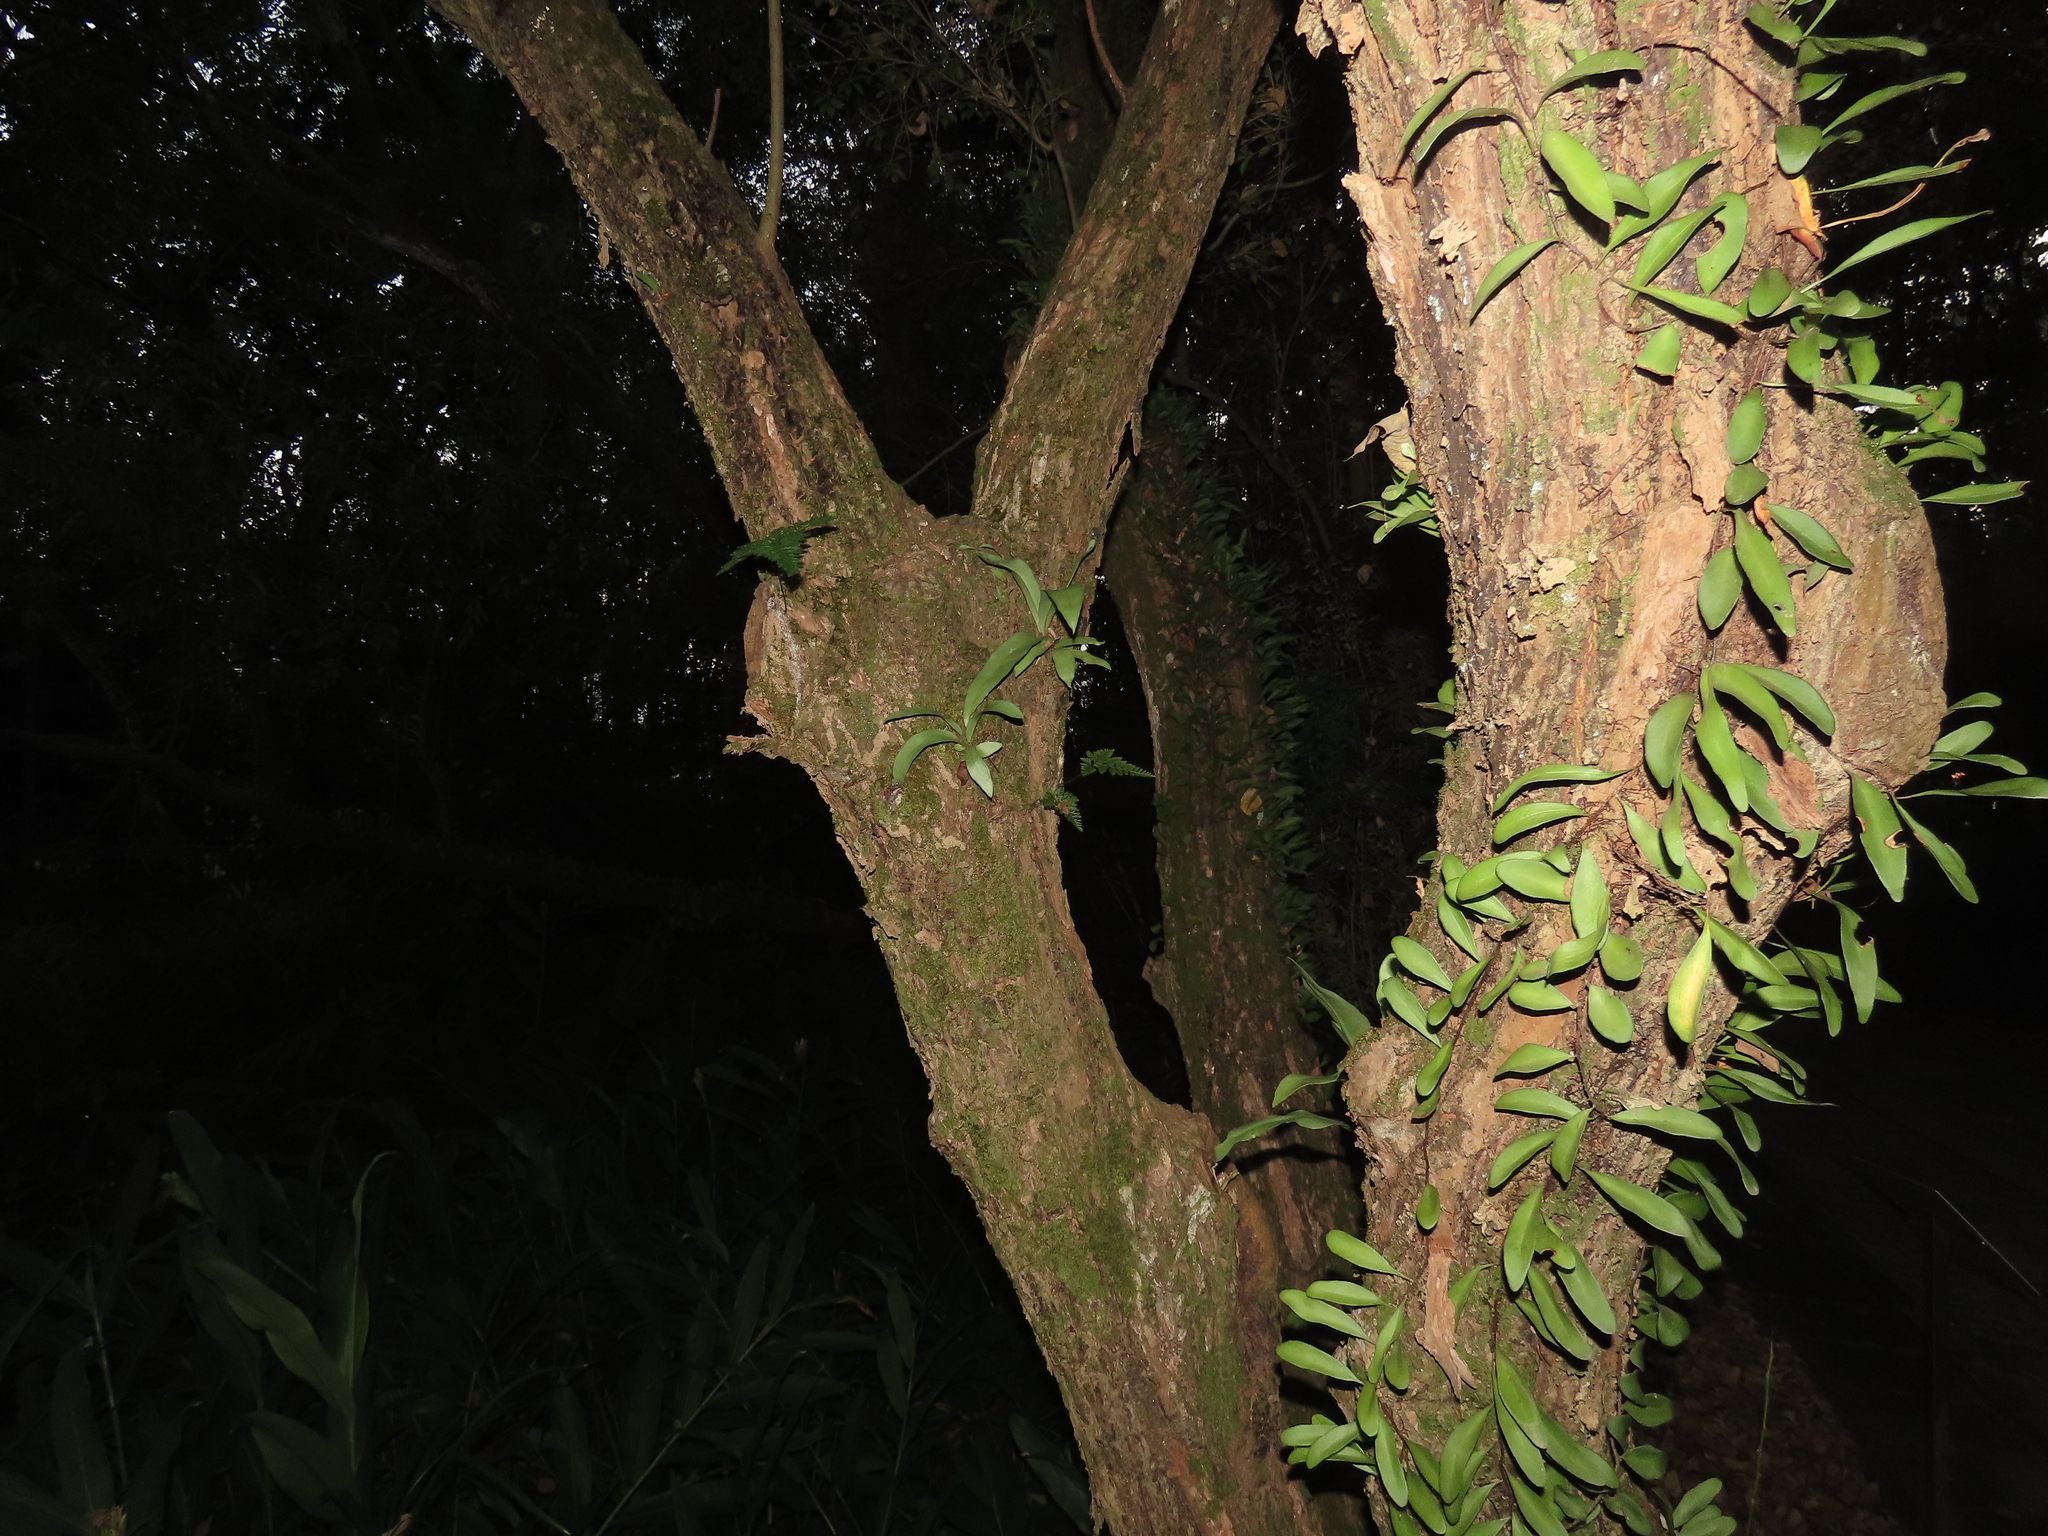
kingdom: Plantae
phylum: Tracheophyta
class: Polypodiopsida
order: Polypodiales
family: Polypodiaceae
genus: Pyrrosia
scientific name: Pyrrosia lanceolata
